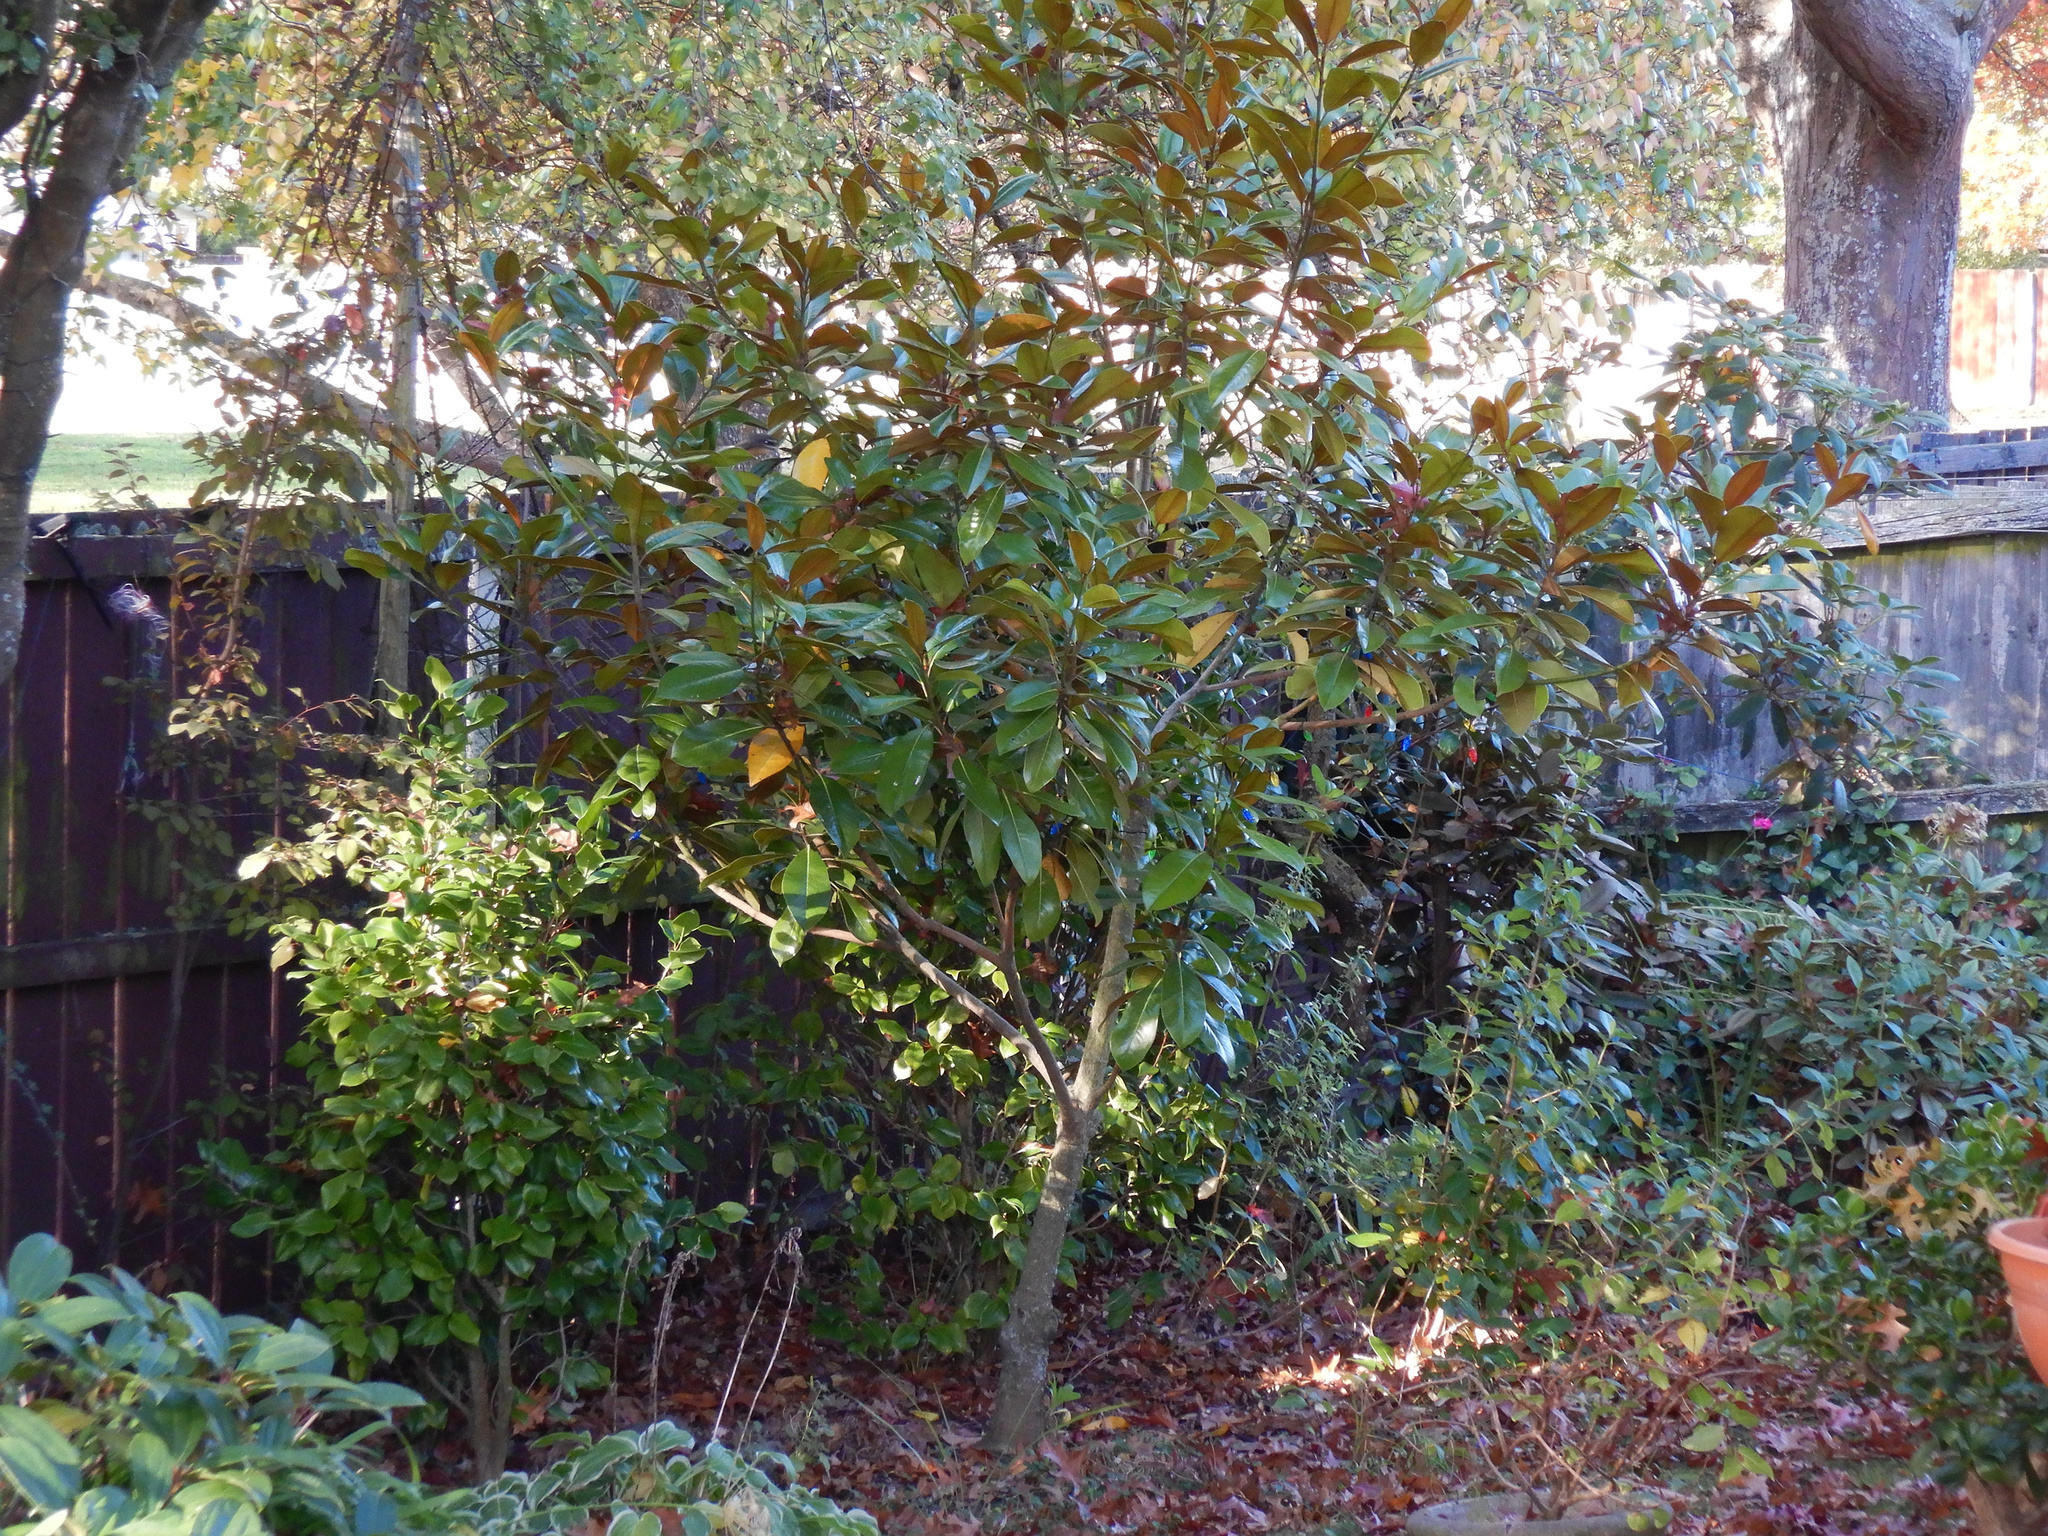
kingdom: Animalia
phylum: Chordata
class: Aves
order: Passeriformes
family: Rhipiduridae
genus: Rhipidura
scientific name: Rhipidura fuliginosa
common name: New zealand fantail
